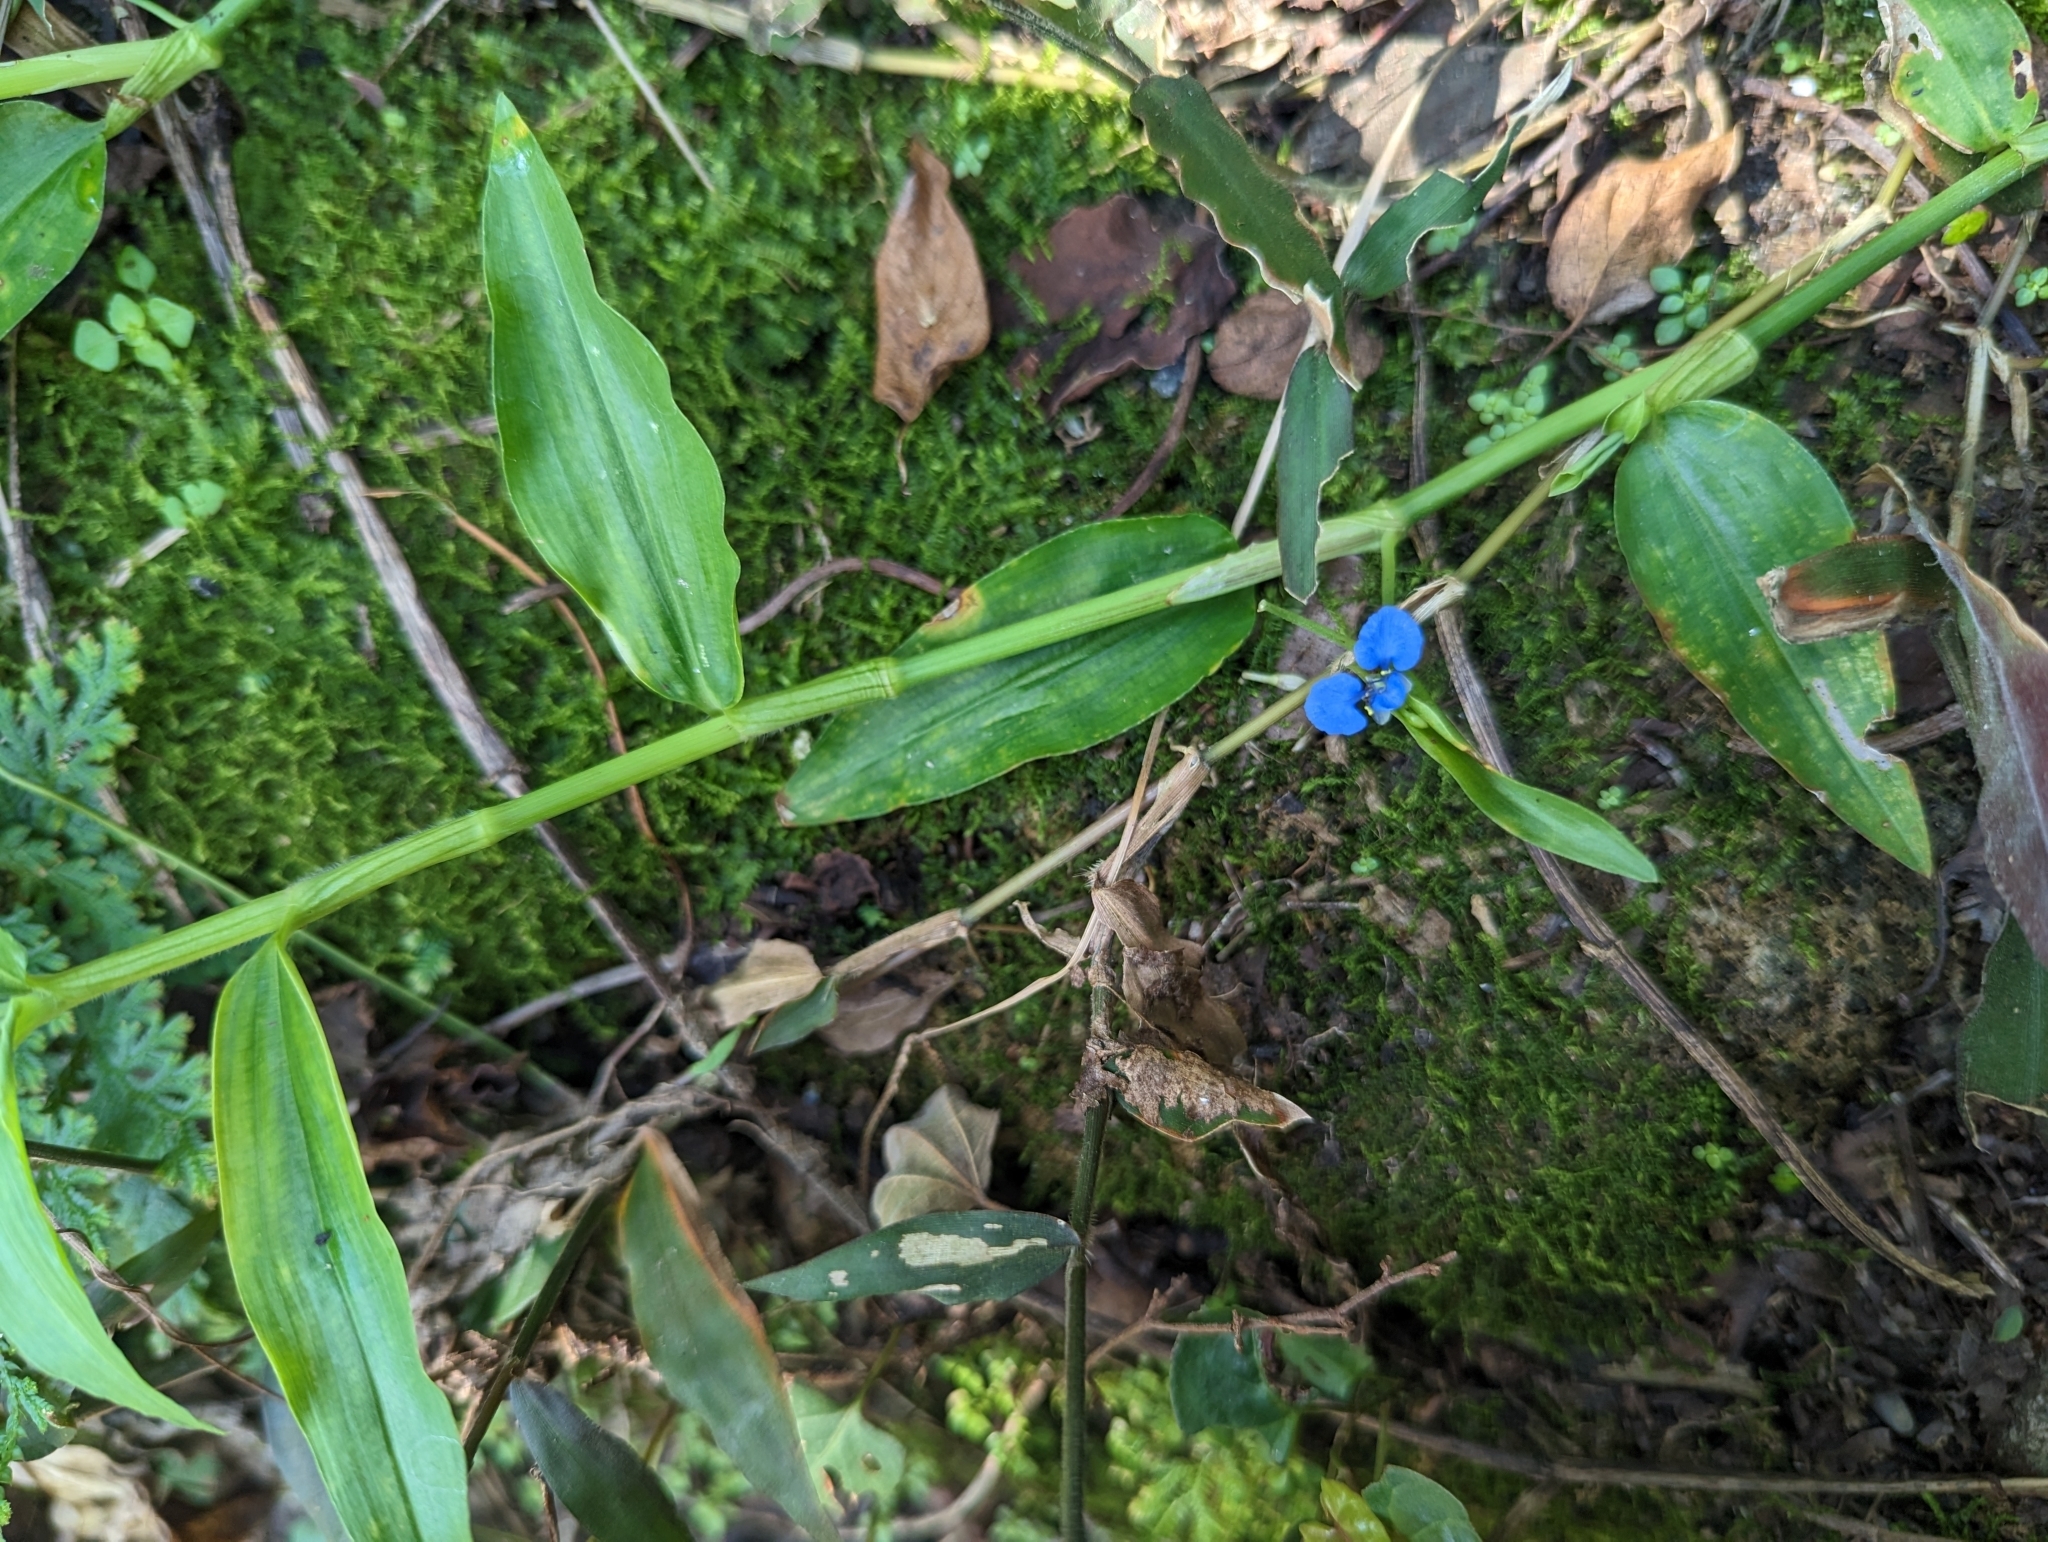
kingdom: Plantae
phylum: Tracheophyta
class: Liliopsida
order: Commelinales
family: Commelinaceae
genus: Commelina
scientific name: Commelina diffusa
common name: Climbing dayflower
